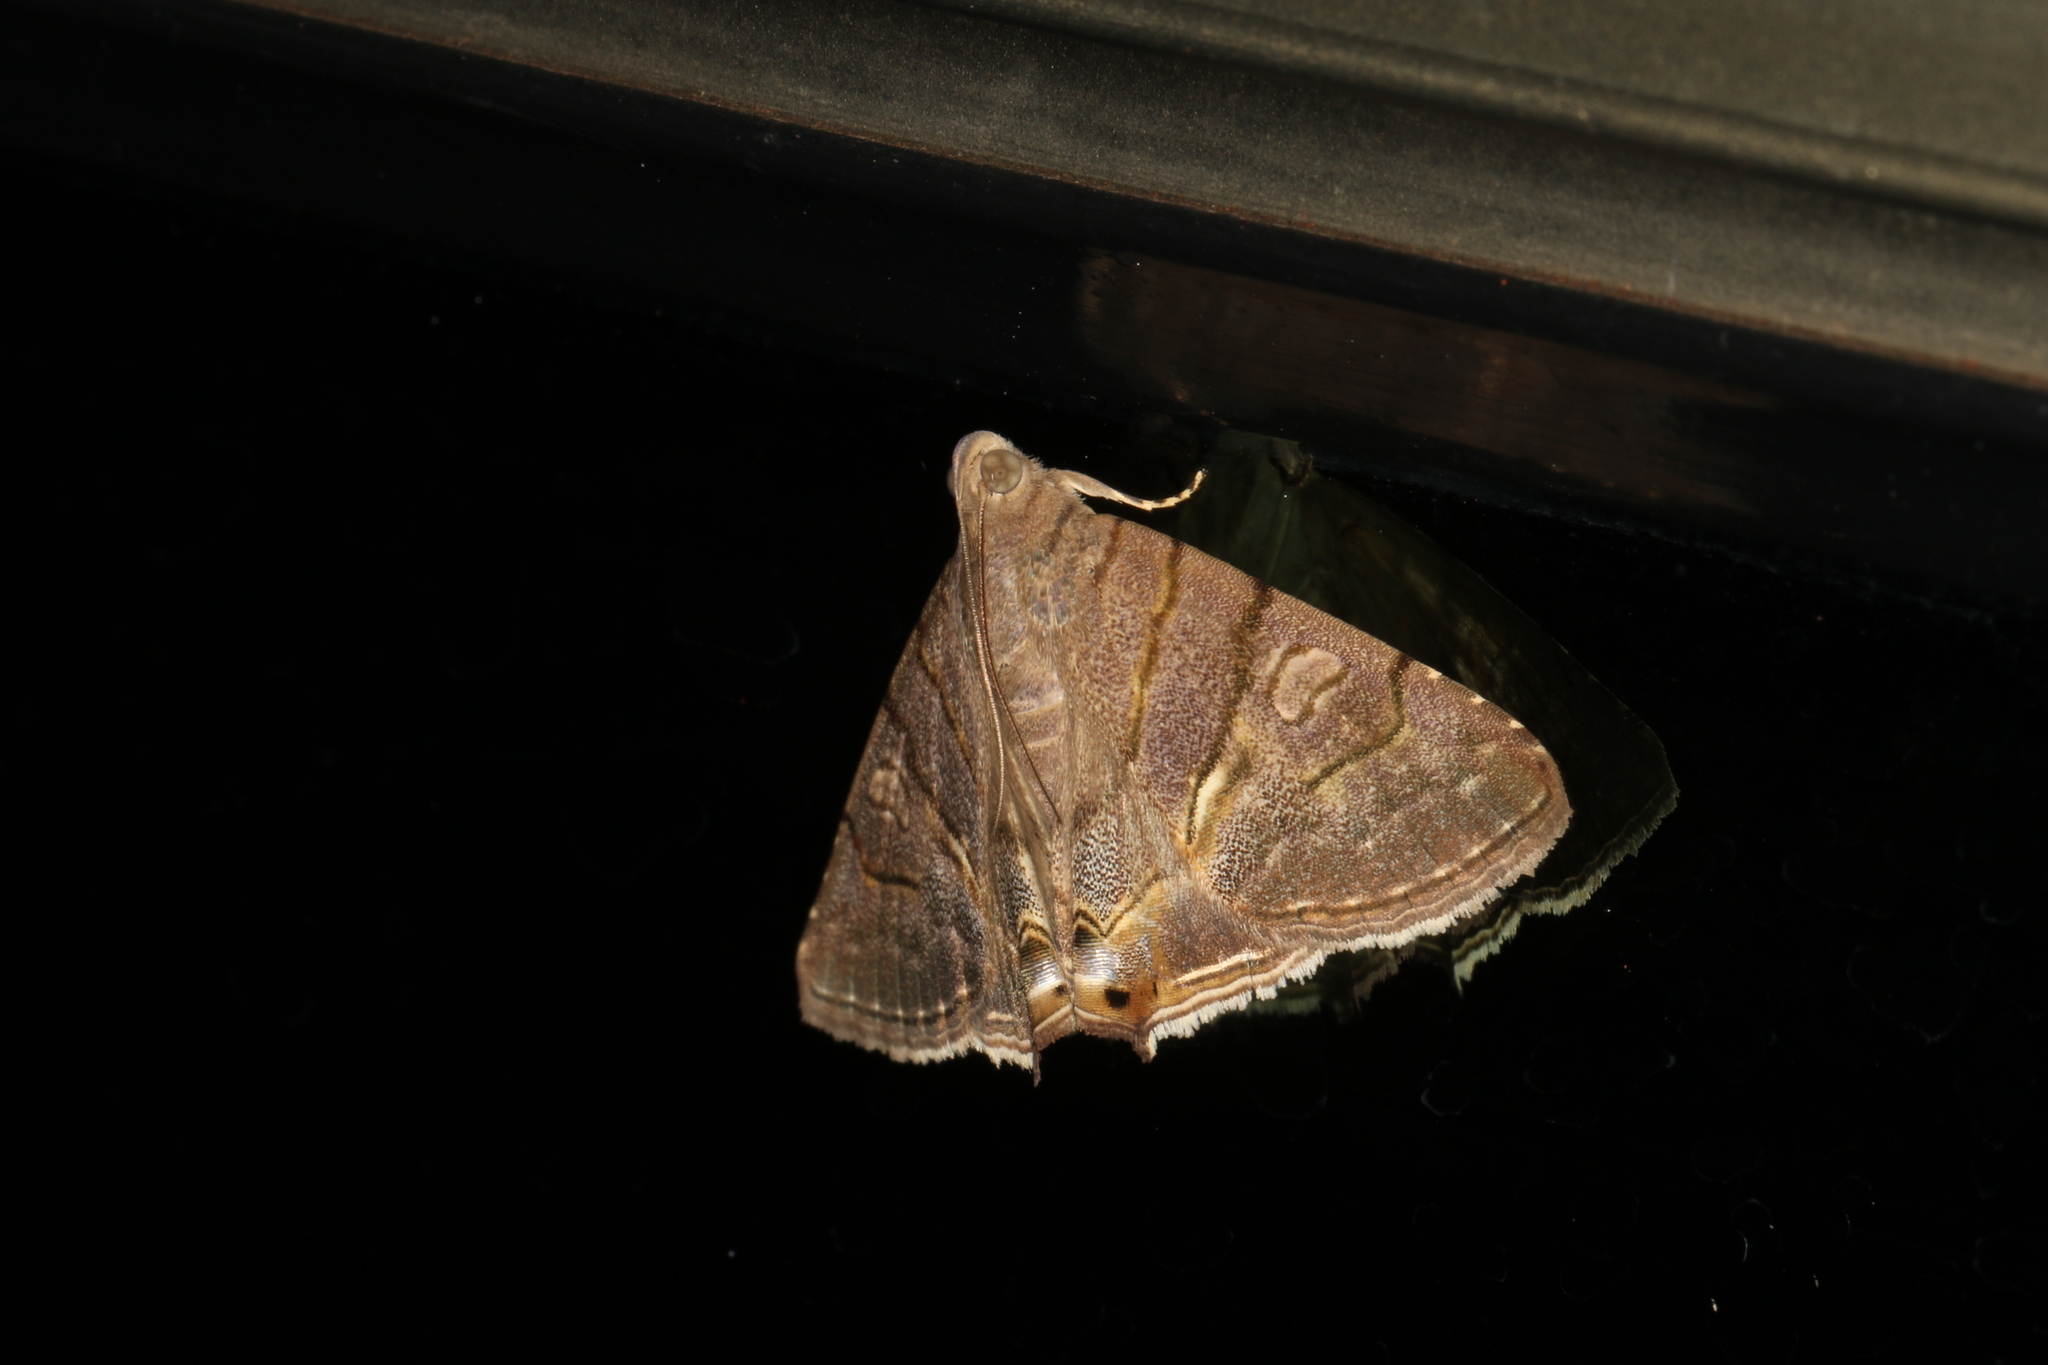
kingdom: Animalia
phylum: Arthropoda
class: Insecta
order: Lepidoptera
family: Erebidae
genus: Eulepidotis
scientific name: Eulepidotis carcistola
